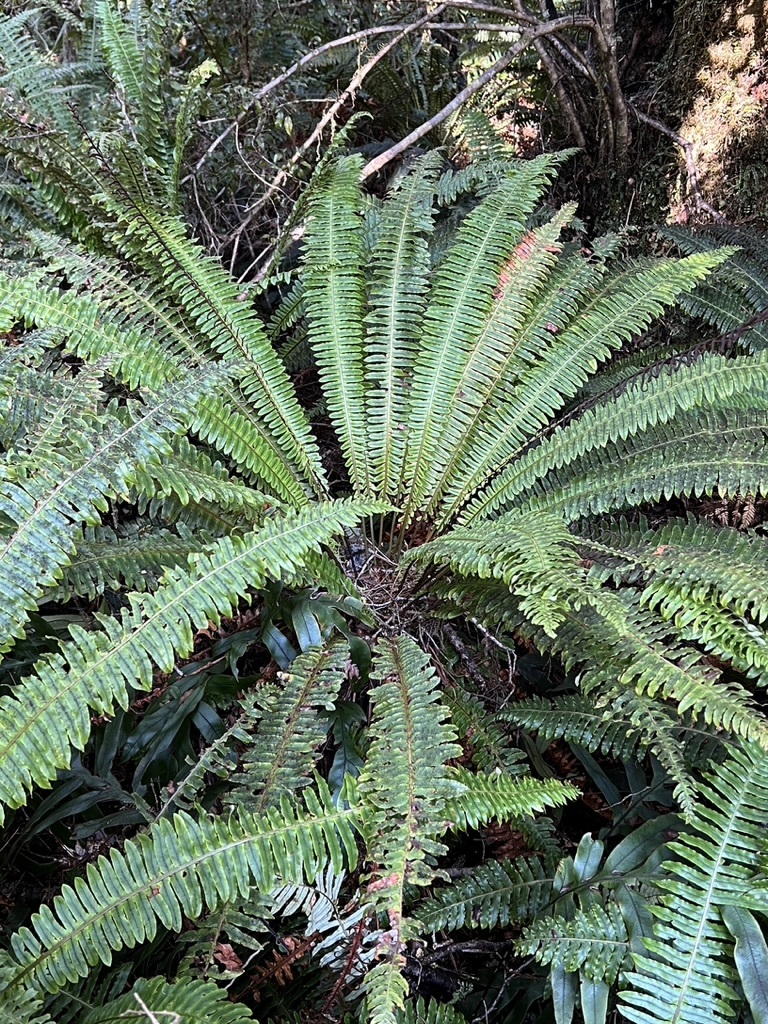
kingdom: Plantae
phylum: Tracheophyta
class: Polypodiopsida
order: Polypodiales
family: Blechnaceae
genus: Lomaria
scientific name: Lomaria discolor
